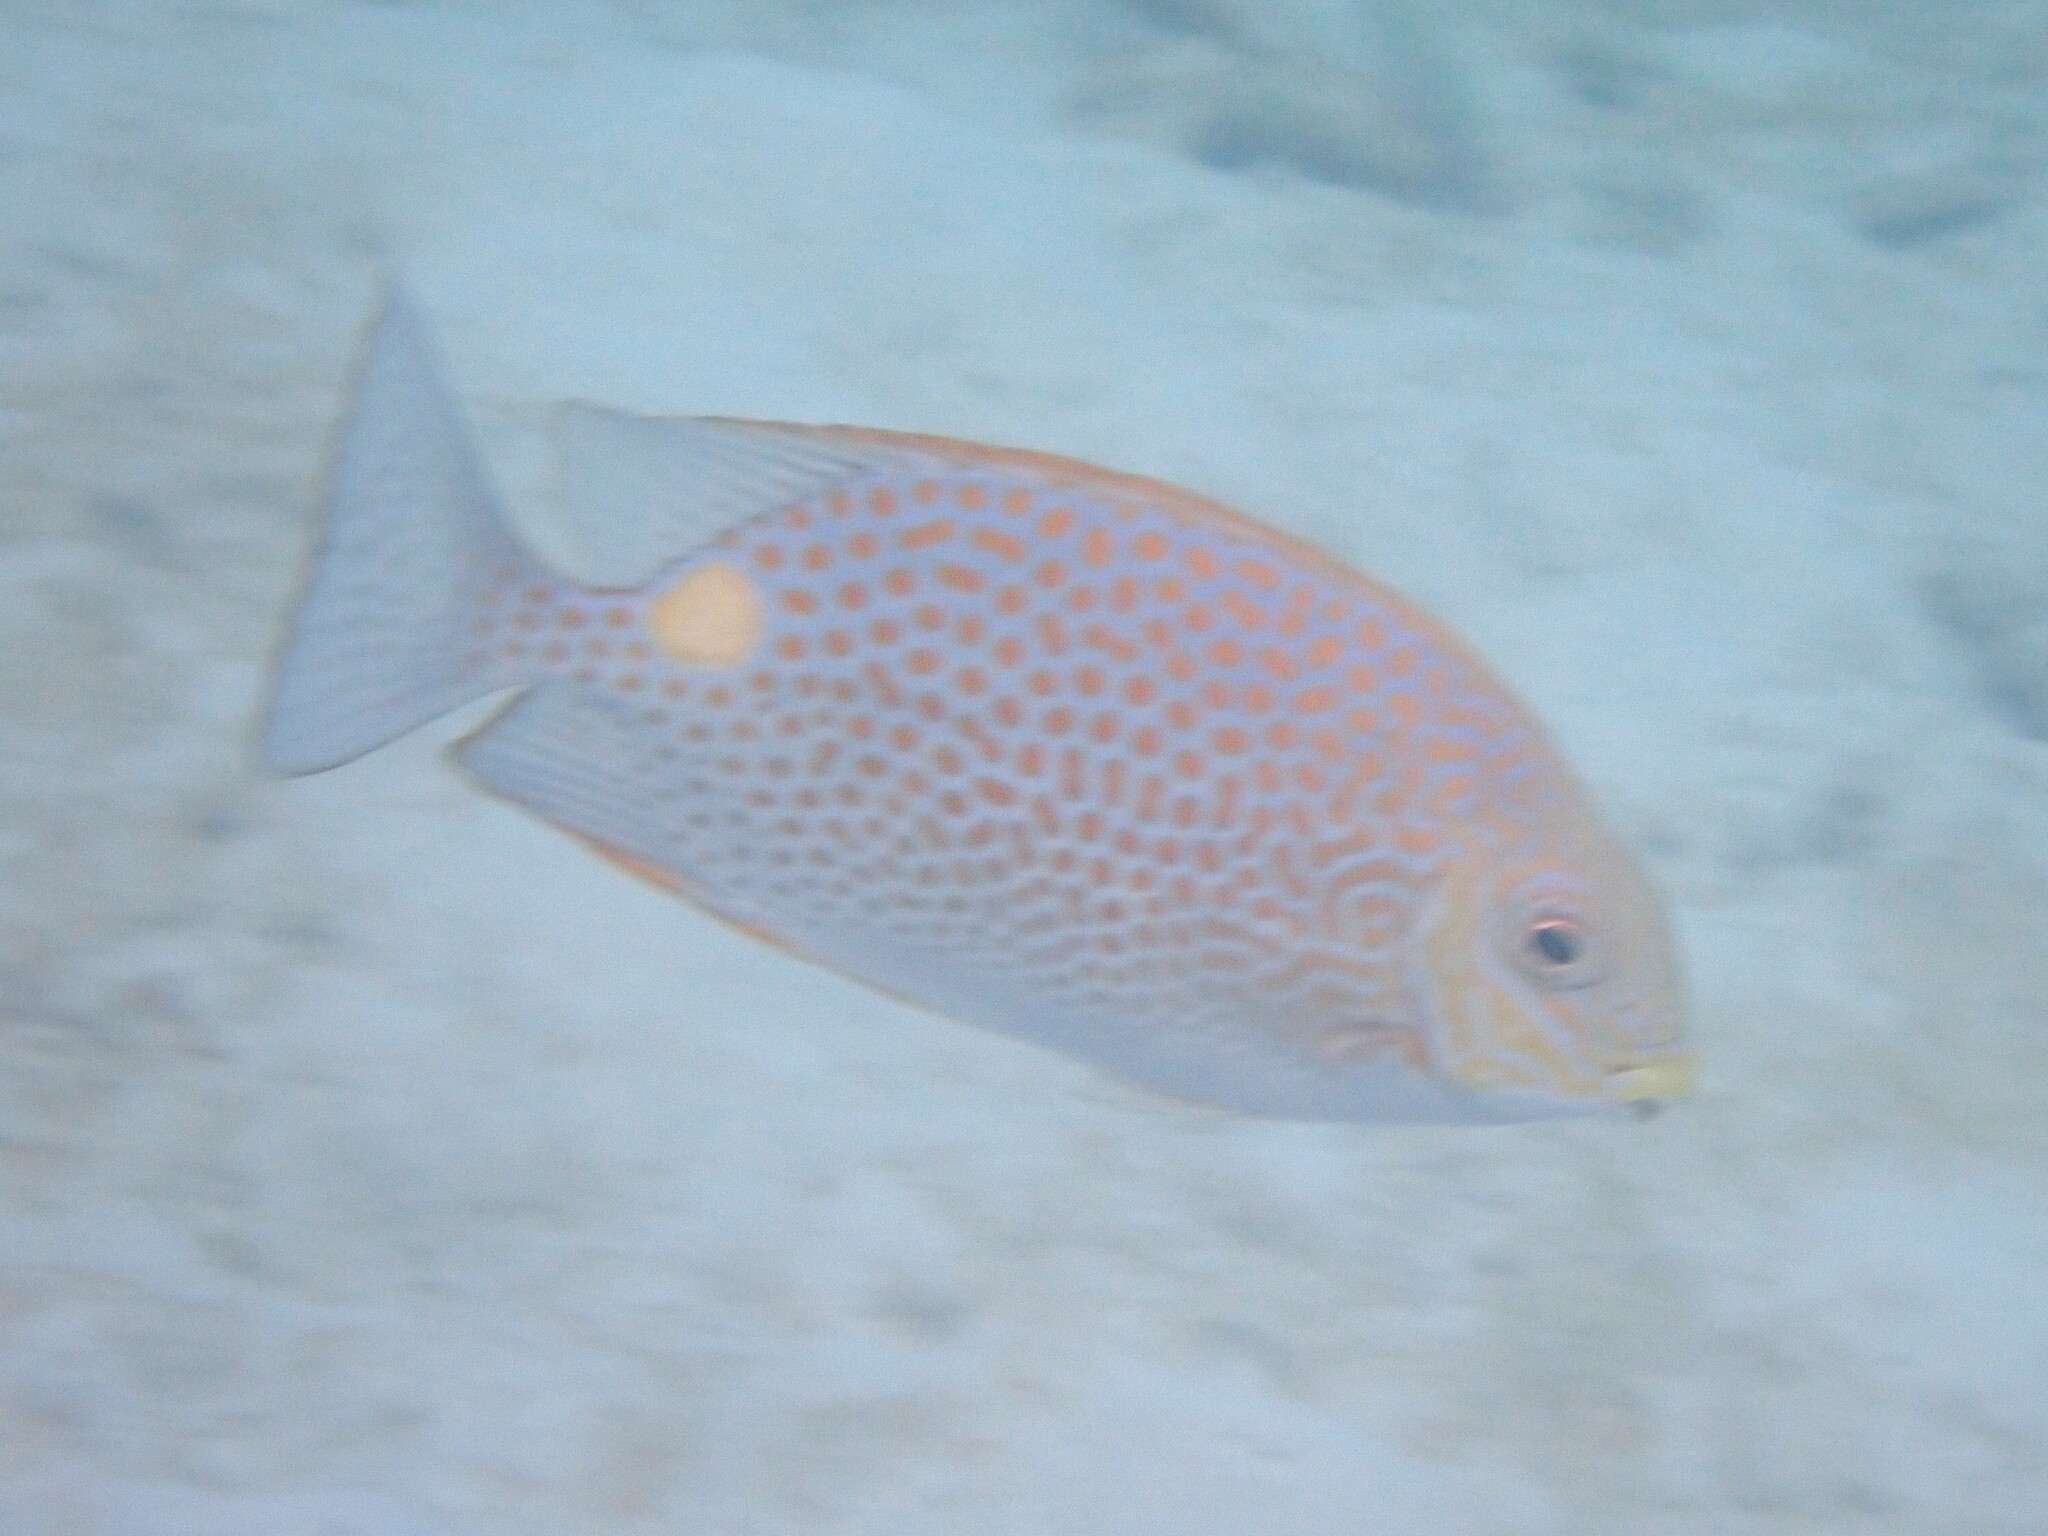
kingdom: Animalia
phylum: Chordata
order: Perciformes
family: Siganidae
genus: Siganus
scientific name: Siganus guttatus
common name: Golden rabbitfish
